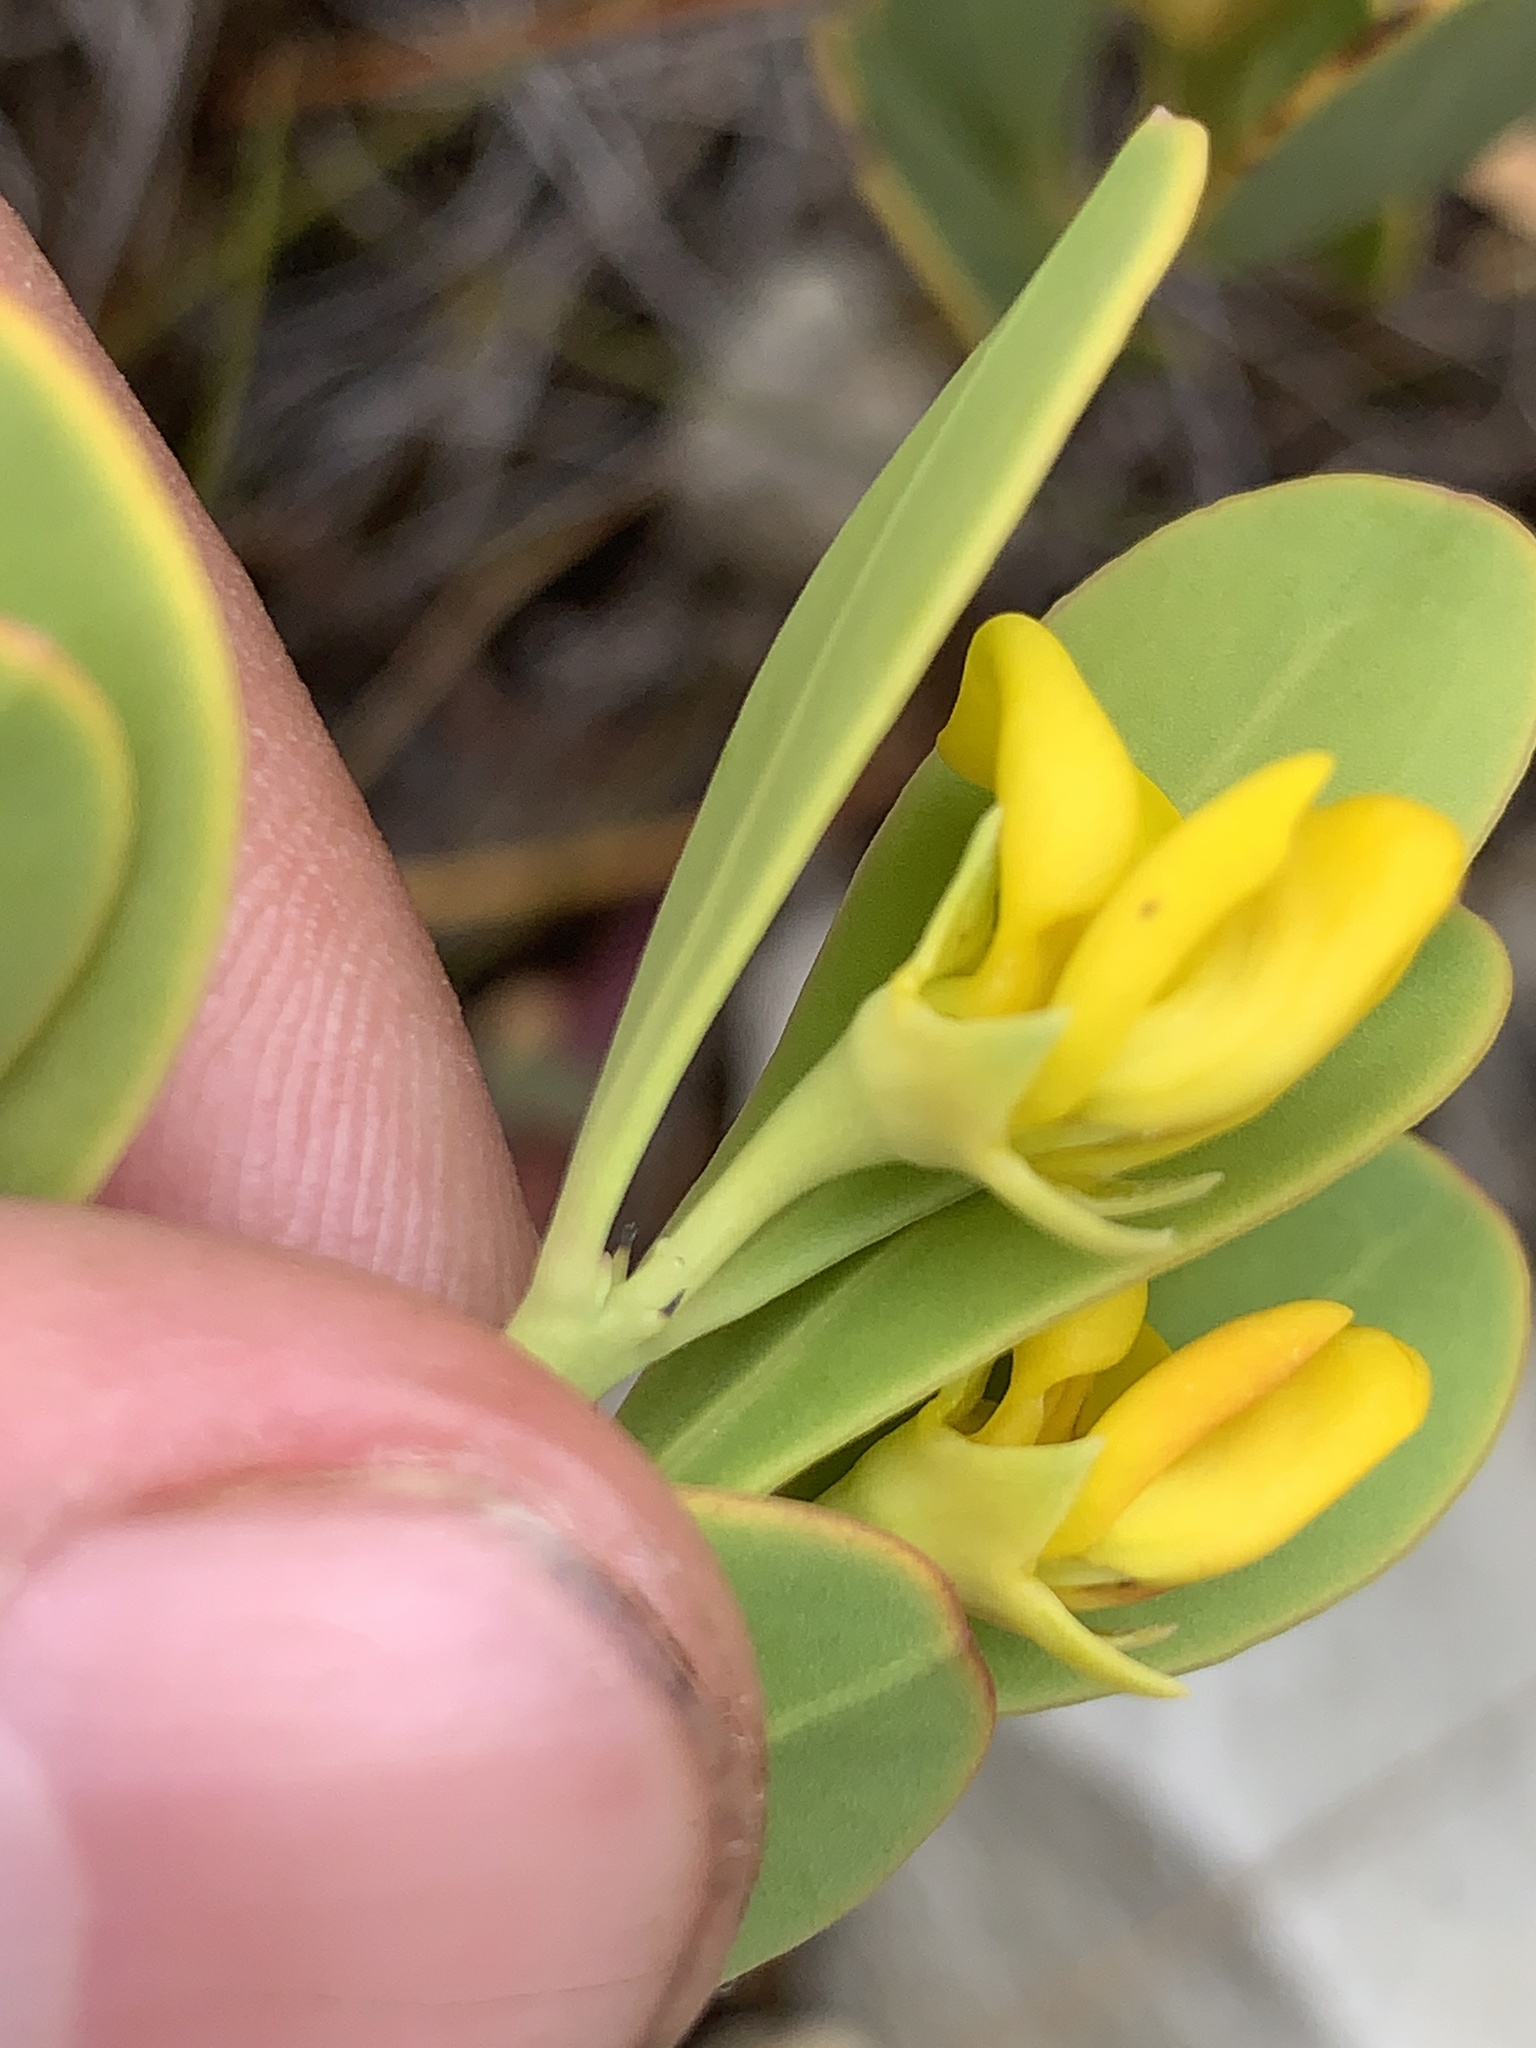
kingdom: Plantae
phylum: Tracheophyta
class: Magnoliopsida
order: Fabales
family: Fabaceae
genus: Rafnia
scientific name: Rafnia capensis
